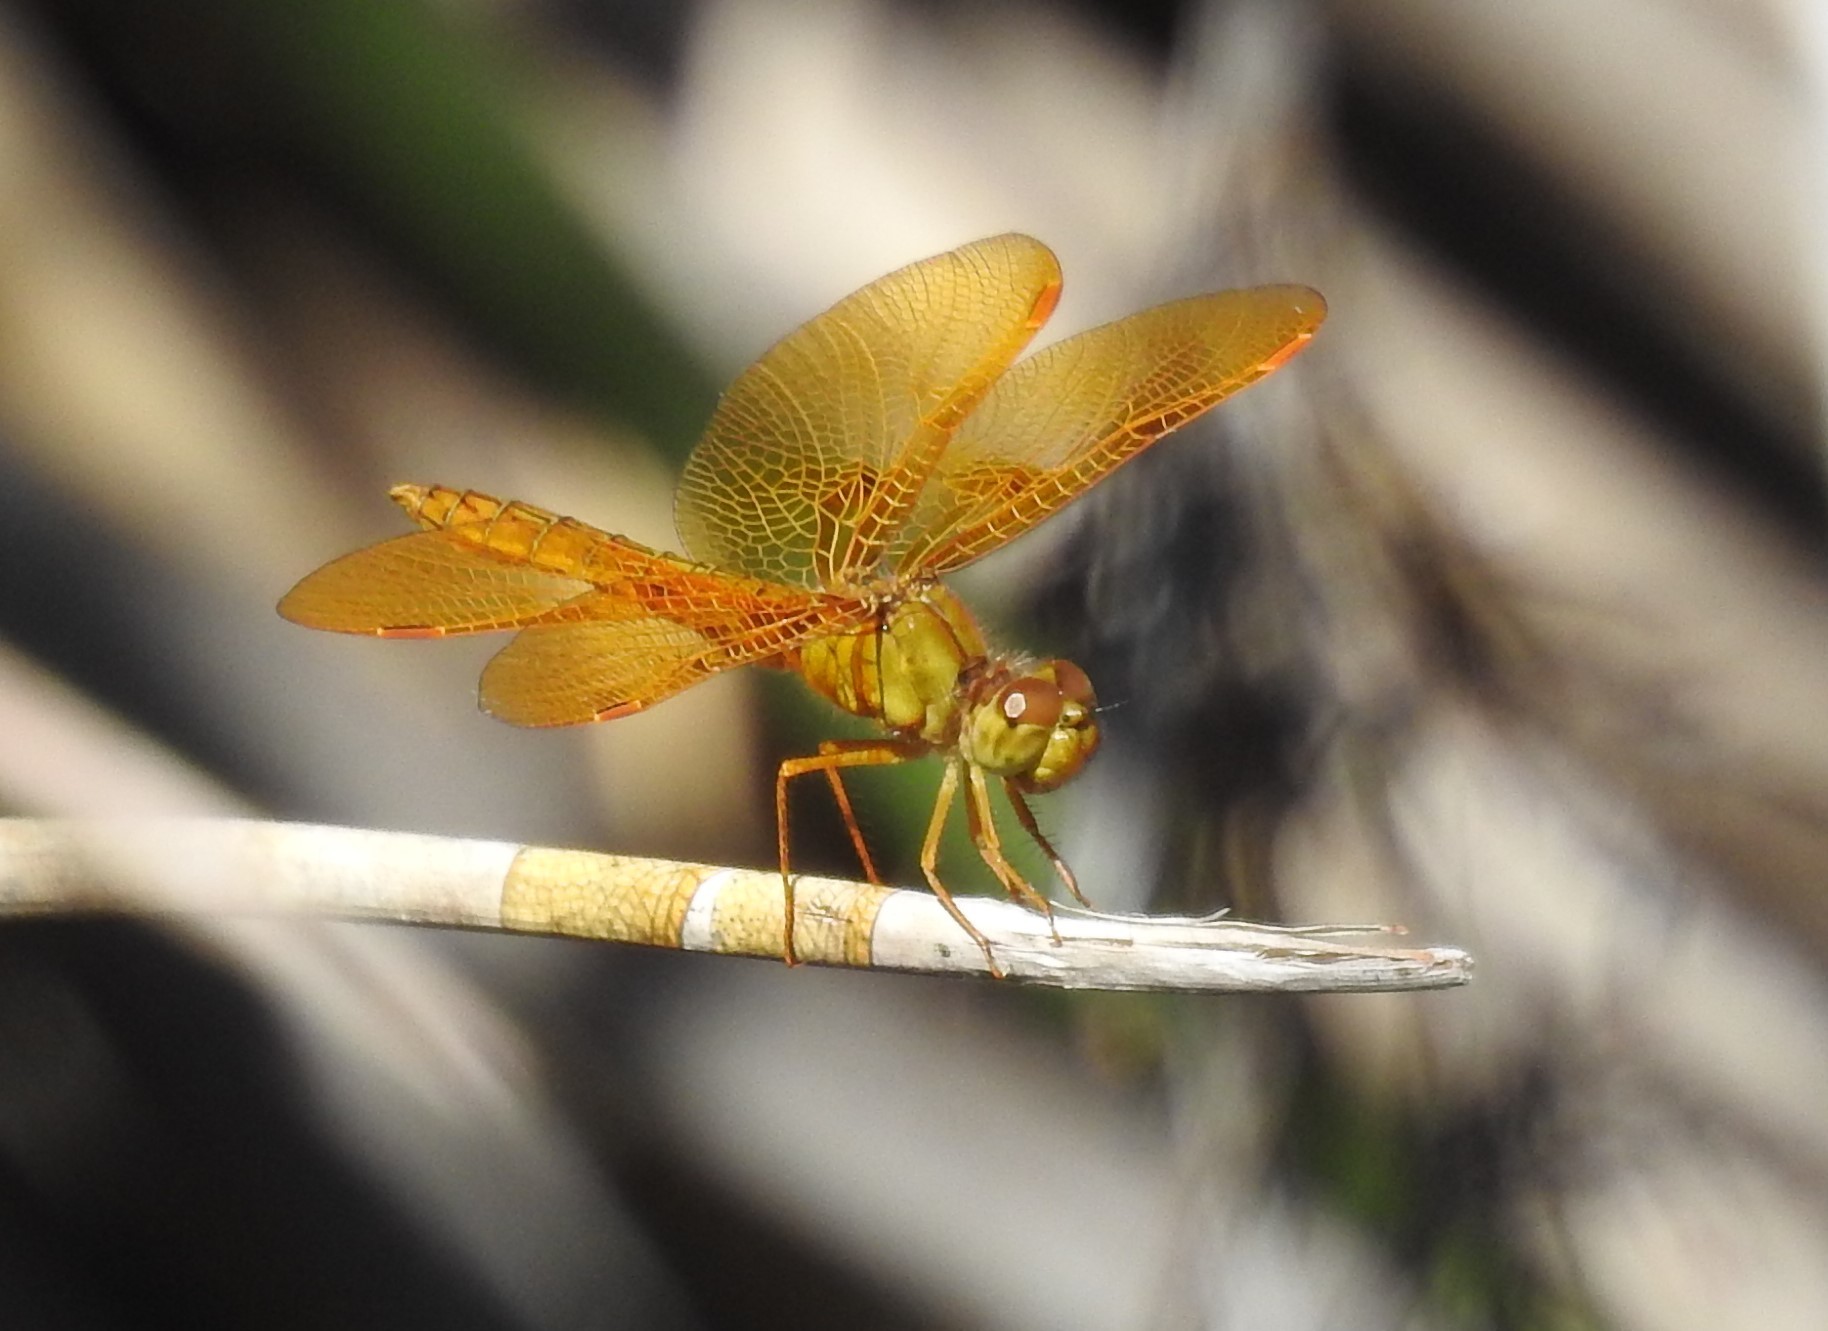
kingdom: Animalia
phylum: Arthropoda
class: Insecta
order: Odonata
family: Libellulidae
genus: Perithemis
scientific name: Perithemis intensa
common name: Mexican amberwing
